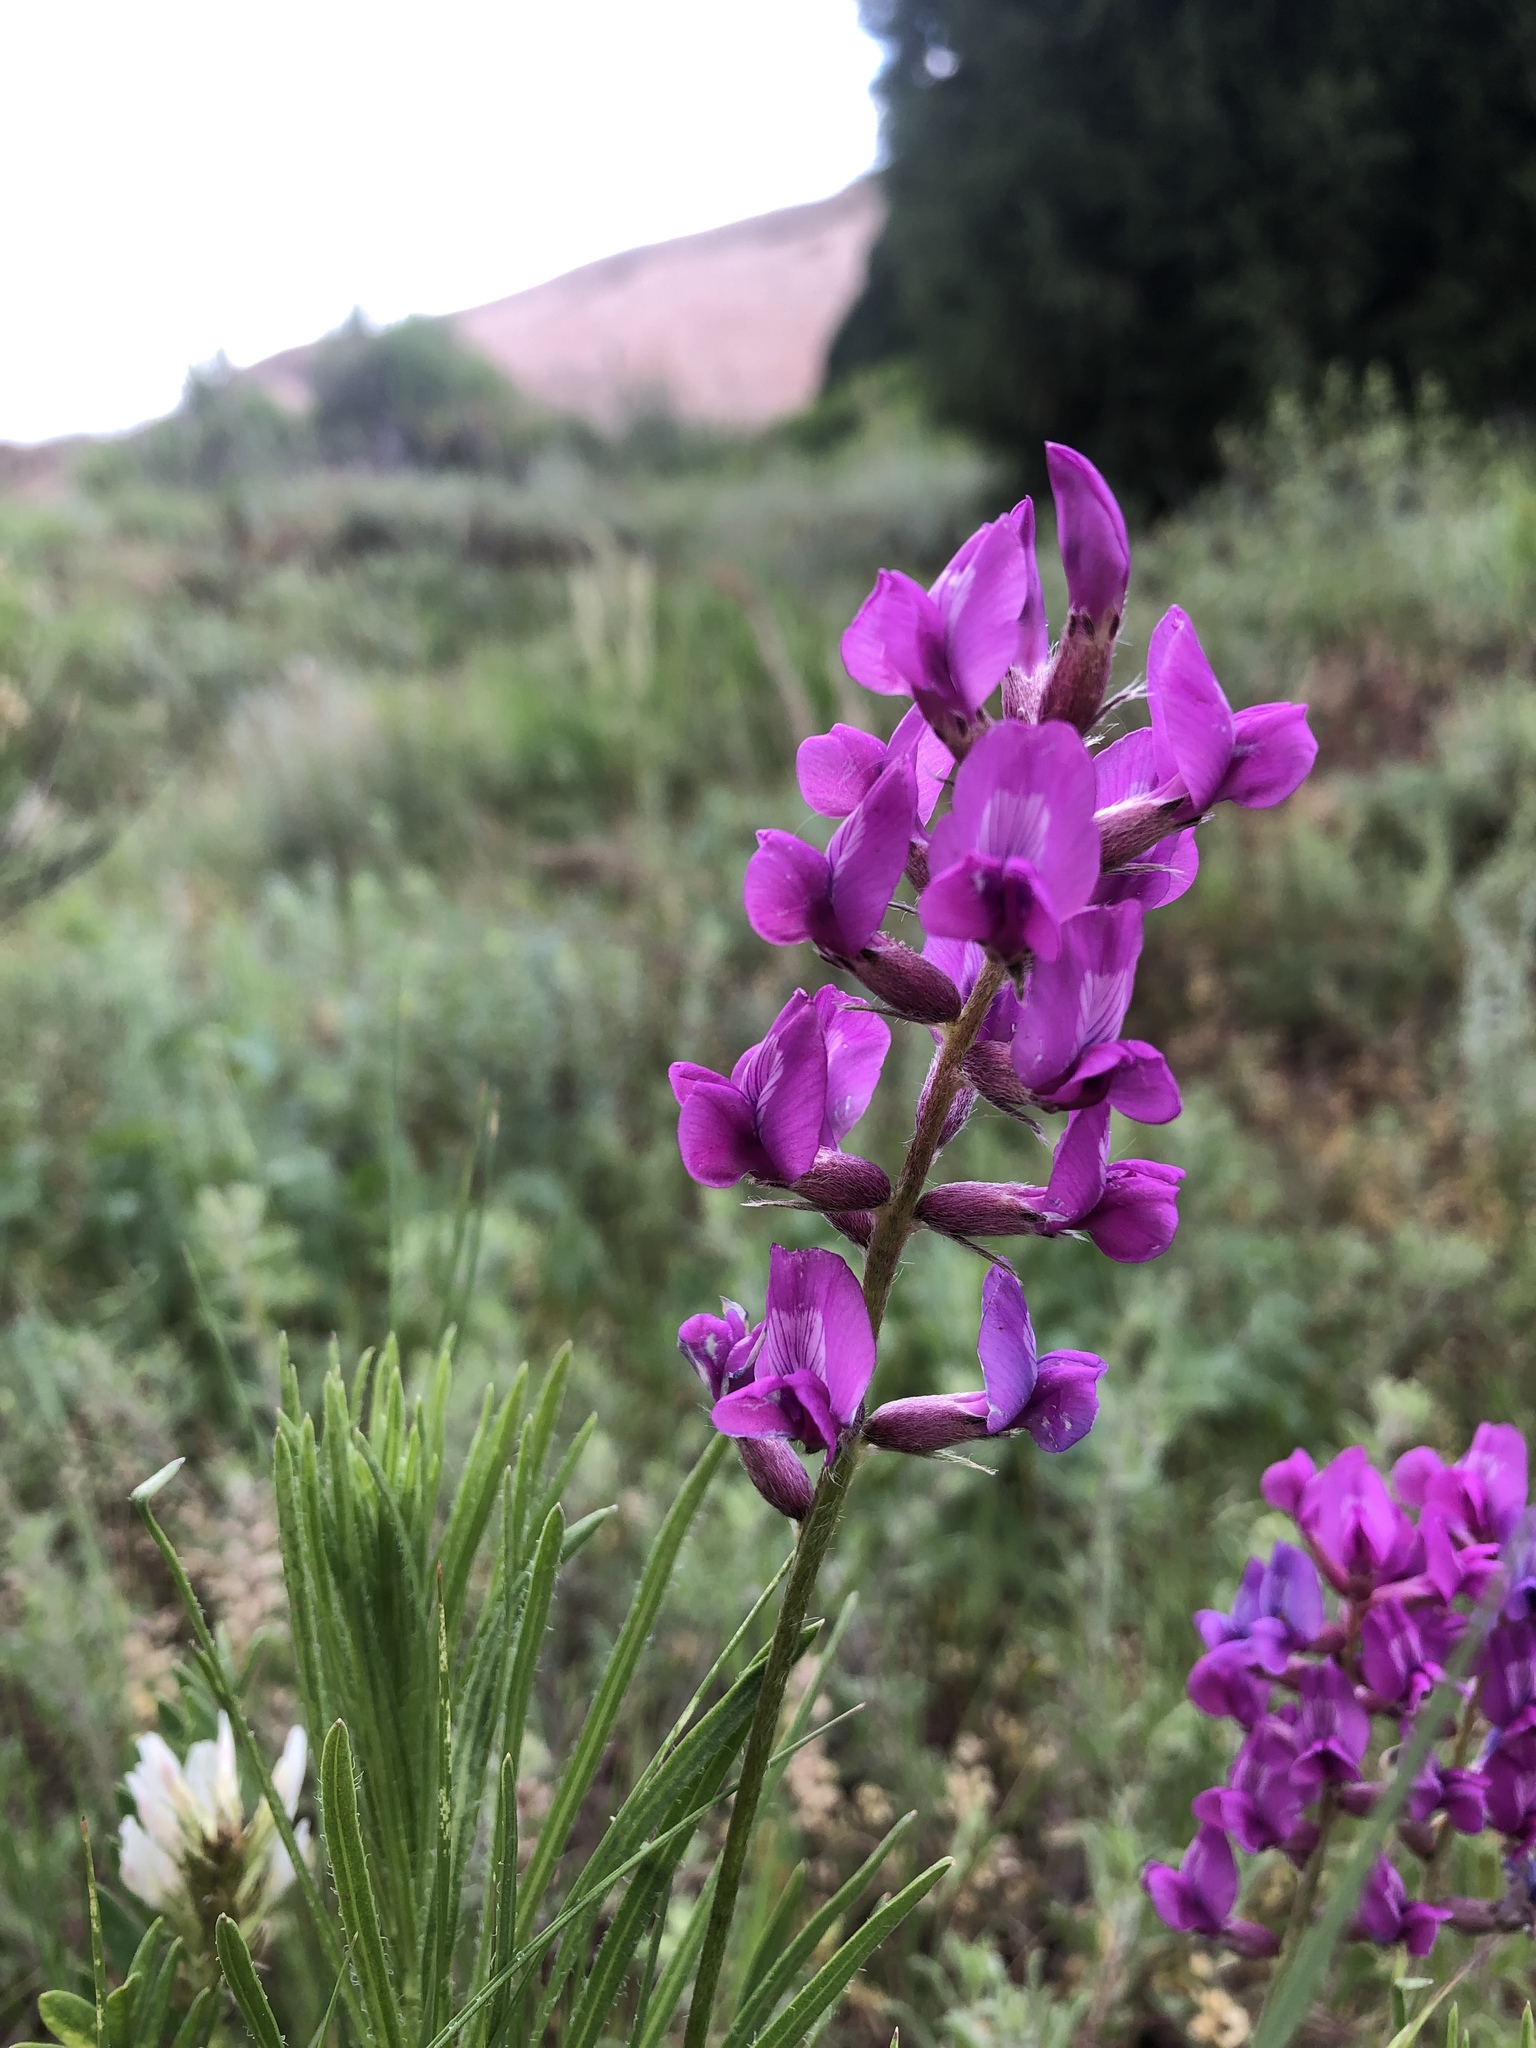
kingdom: Plantae
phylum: Tracheophyta
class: Magnoliopsida
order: Fabales
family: Fabaceae
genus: Oxytropis
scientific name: Oxytropis lambertii
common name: Purple locoweed
